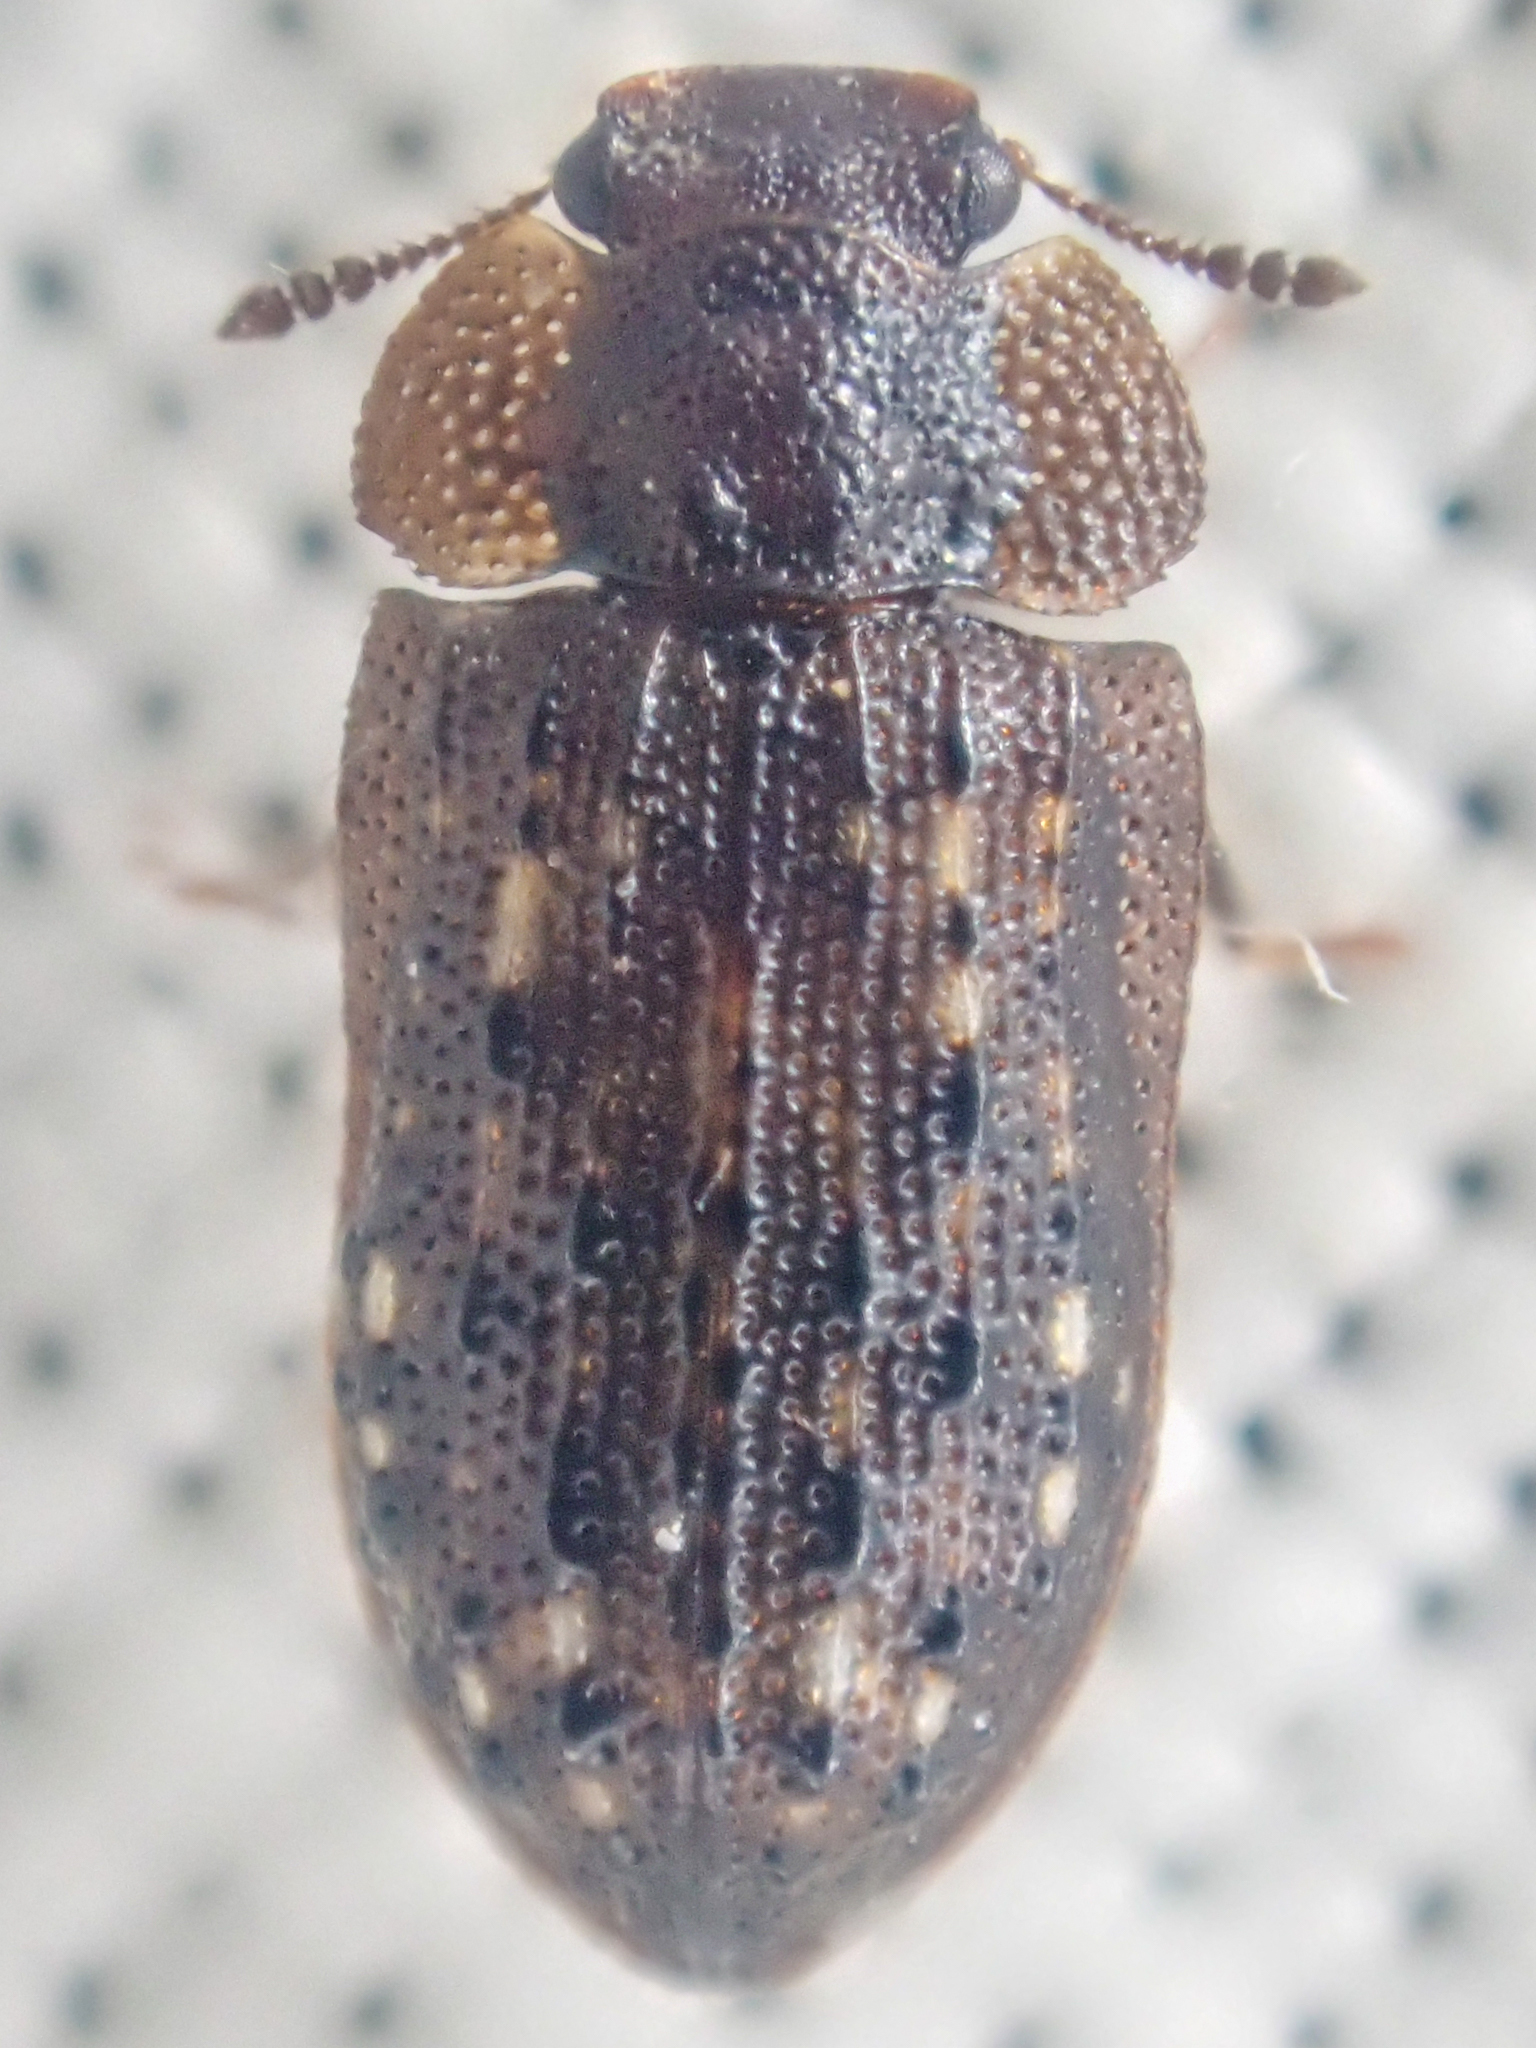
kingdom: Animalia
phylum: Arthropoda
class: Insecta
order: Coleoptera
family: Derodontidae
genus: Peltastica
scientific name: Peltastica tuberculata
